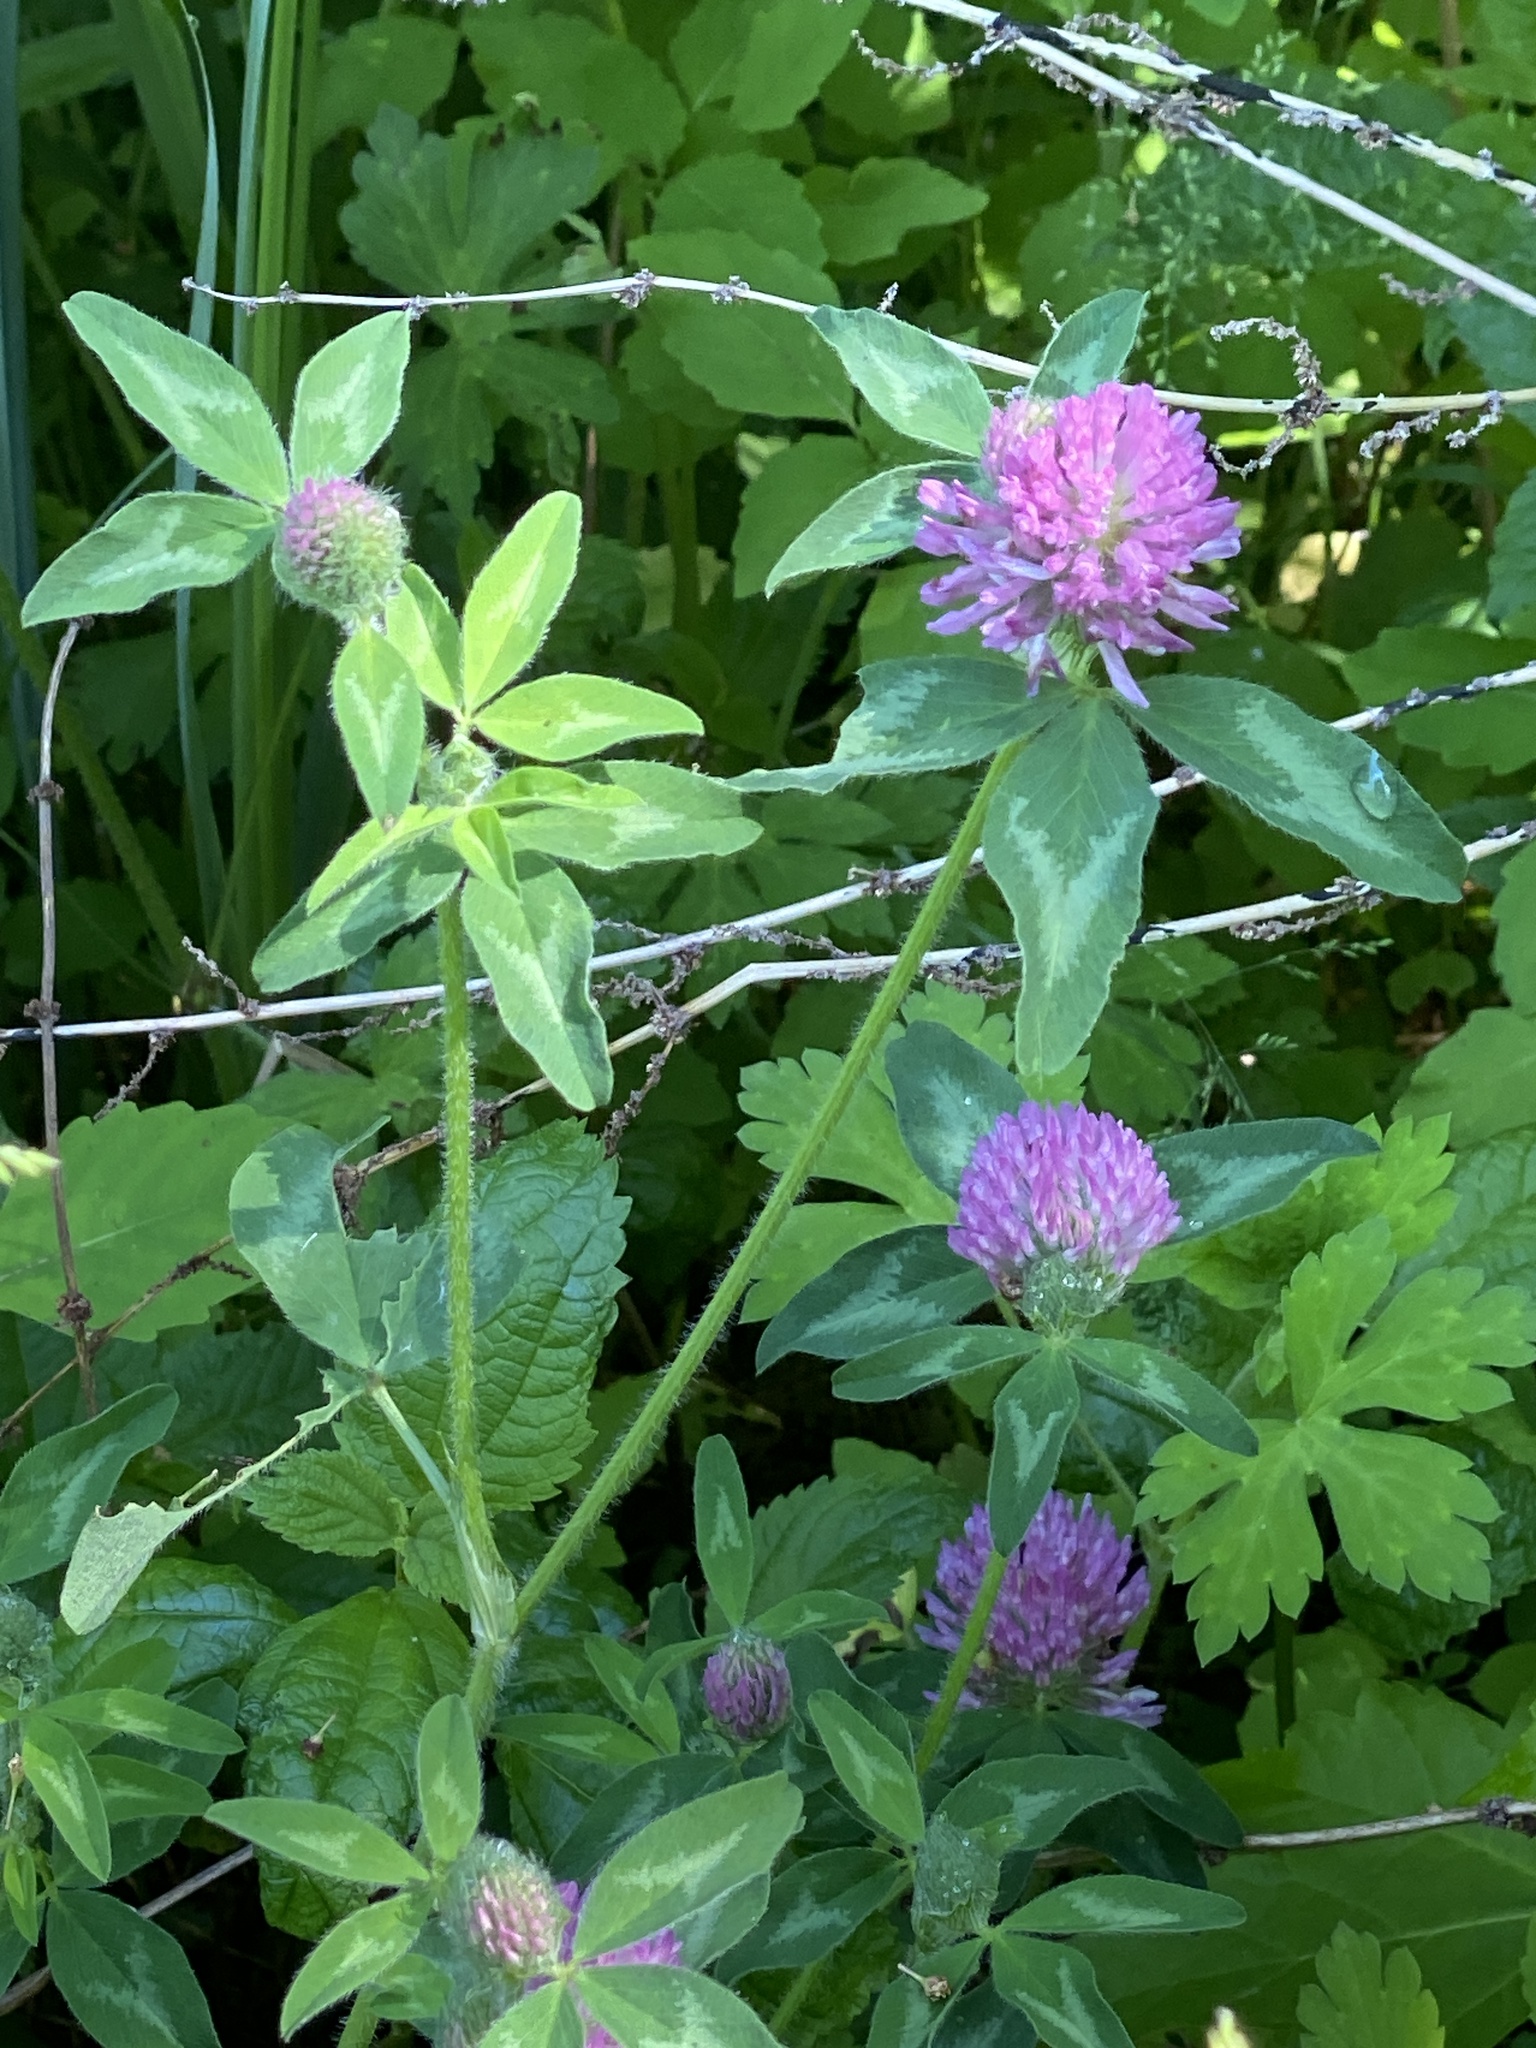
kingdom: Plantae
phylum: Tracheophyta
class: Magnoliopsida
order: Fabales
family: Fabaceae
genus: Trifolium
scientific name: Trifolium pratense
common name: Red clover
